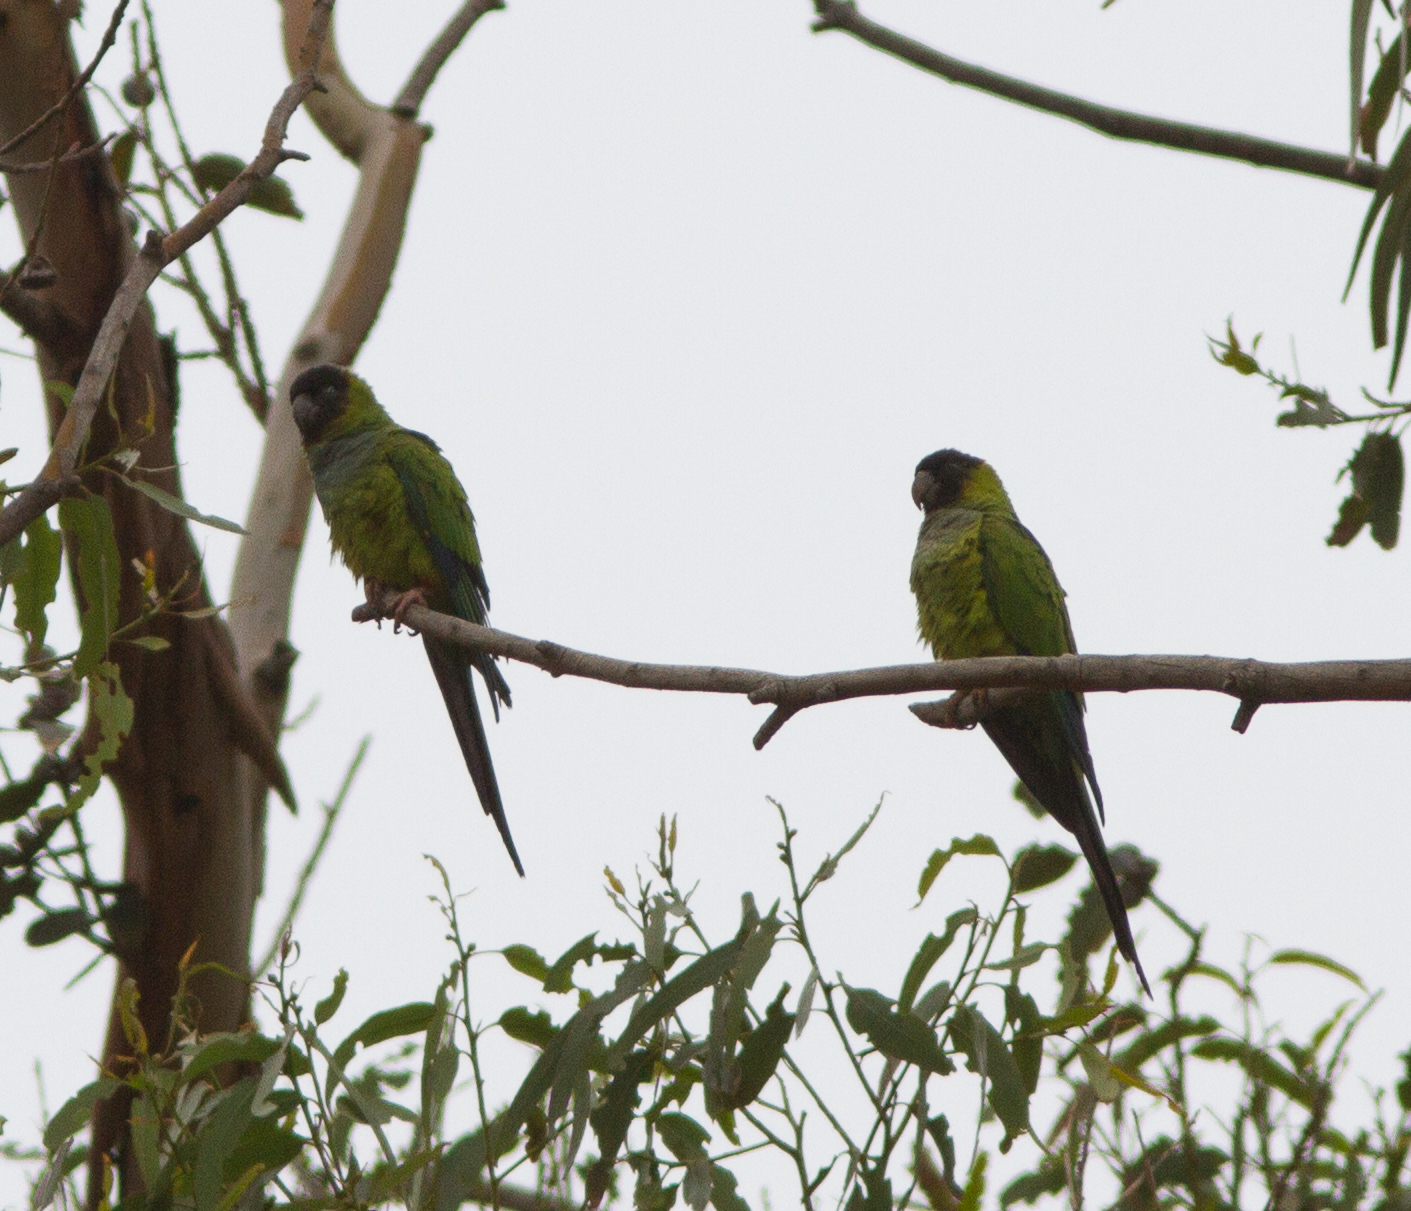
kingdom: Animalia
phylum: Chordata
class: Aves
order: Psittaciformes
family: Psittacidae
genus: Nandayus
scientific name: Nandayus nenday
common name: Nanday parakeet
